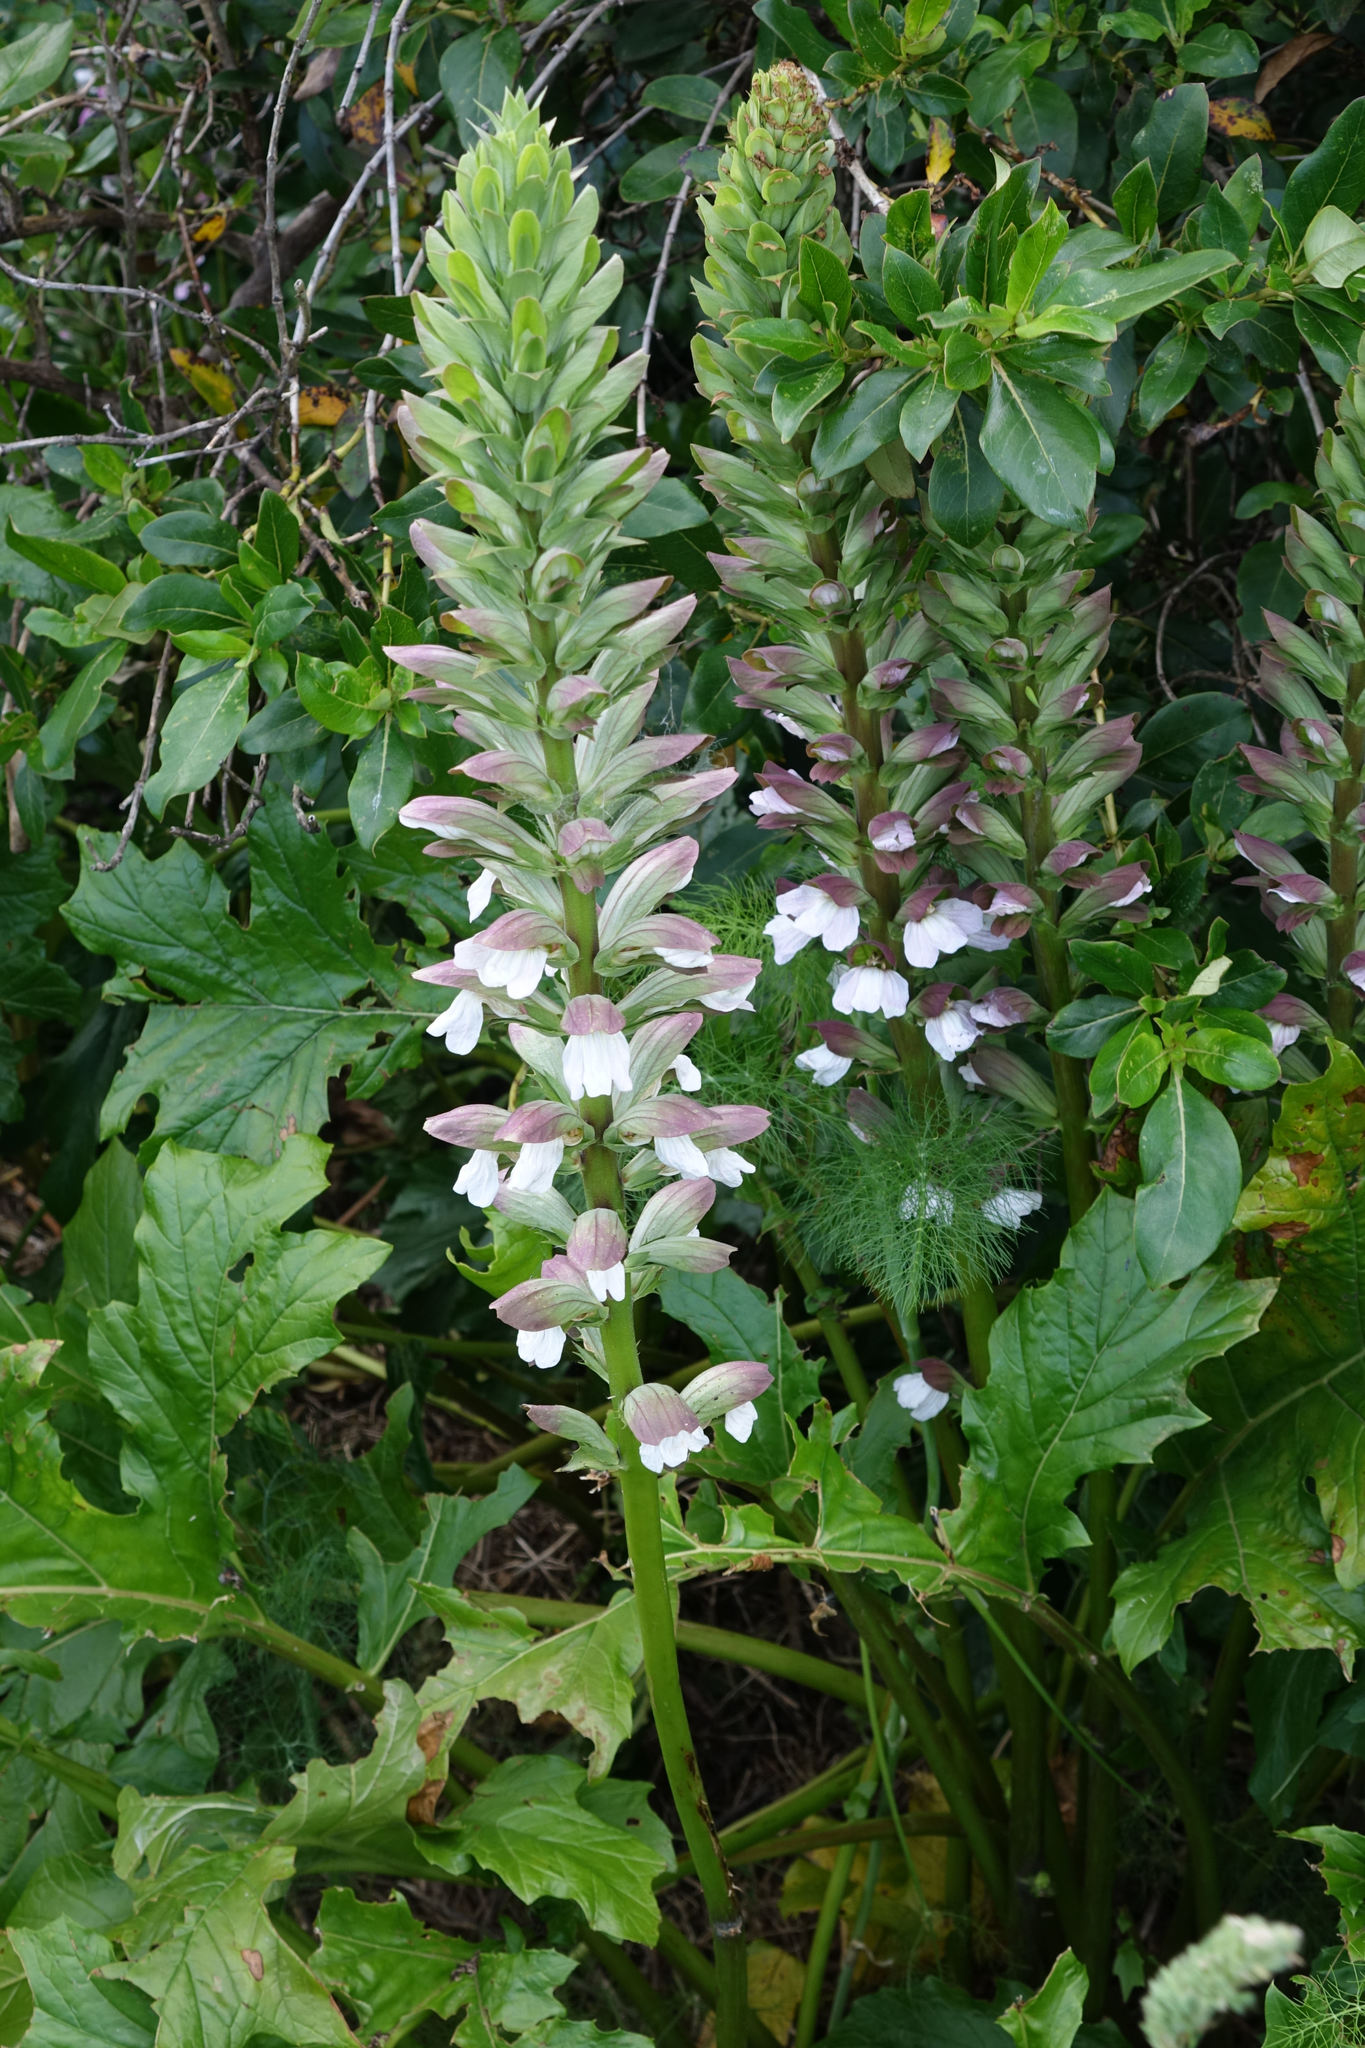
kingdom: Plantae
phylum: Tracheophyta
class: Magnoliopsida
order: Lamiales
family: Acanthaceae
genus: Acanthus
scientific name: Acanthus mollis
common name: Bear's-breech
